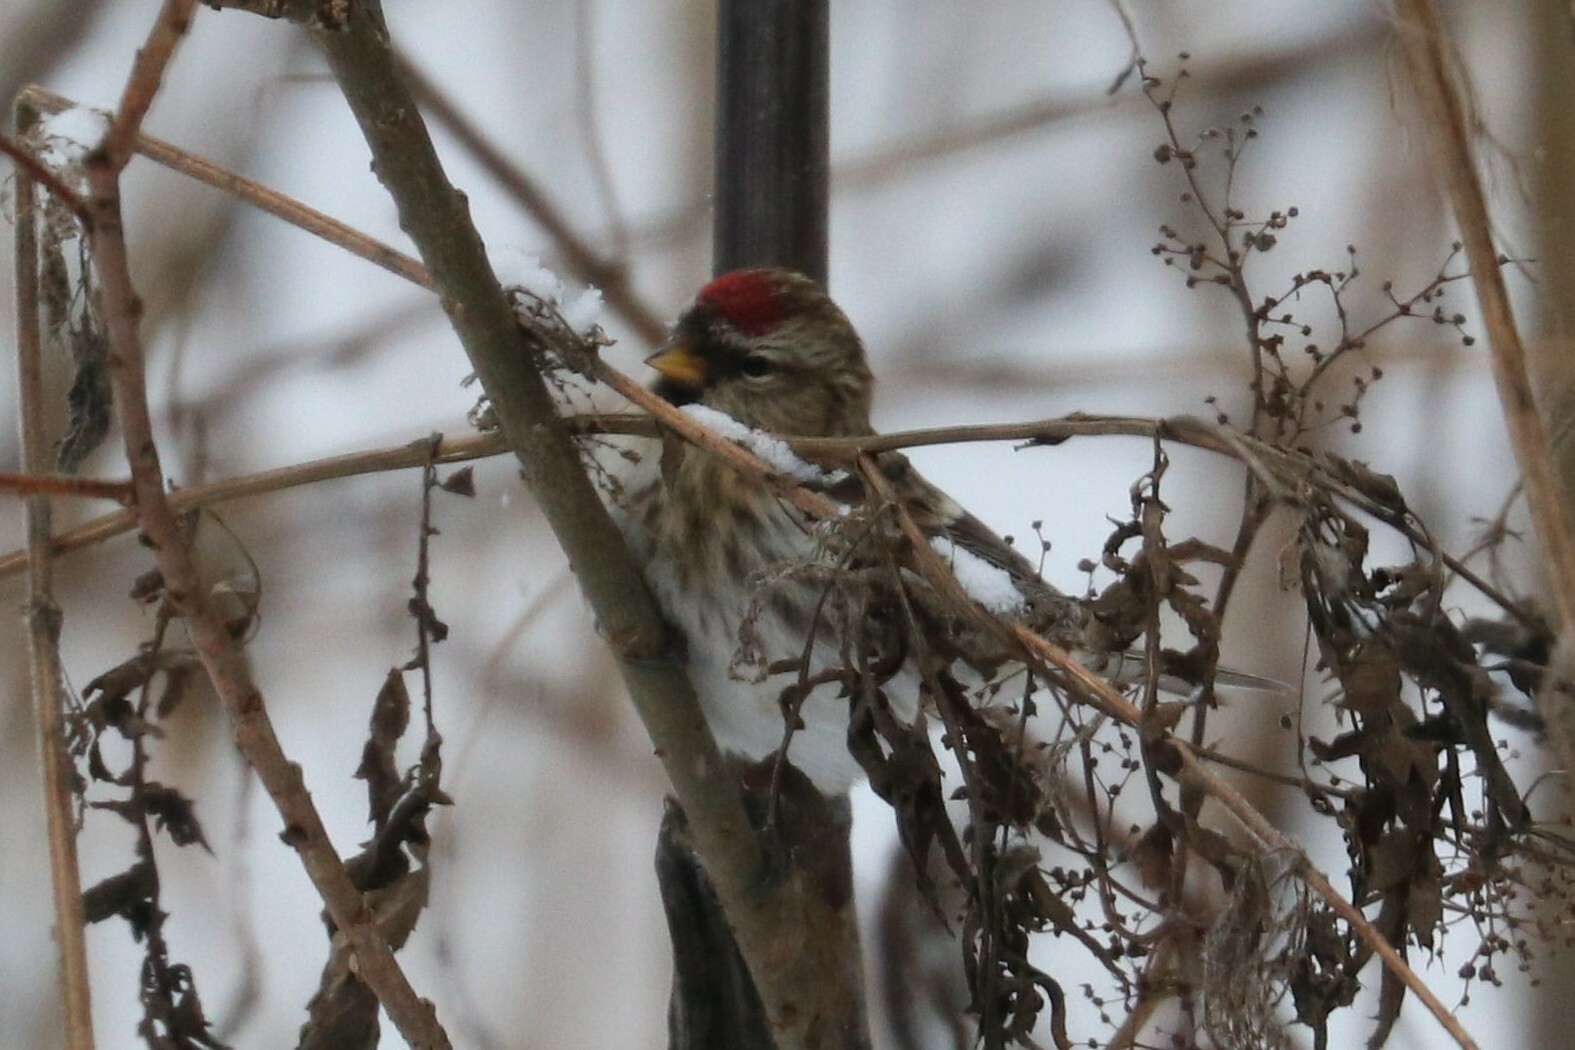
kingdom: Animalia
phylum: Chordata
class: Aves
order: Passeriformes
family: Fringillidae
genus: Acanthis
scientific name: Acanthis flammea
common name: Common redpoll
